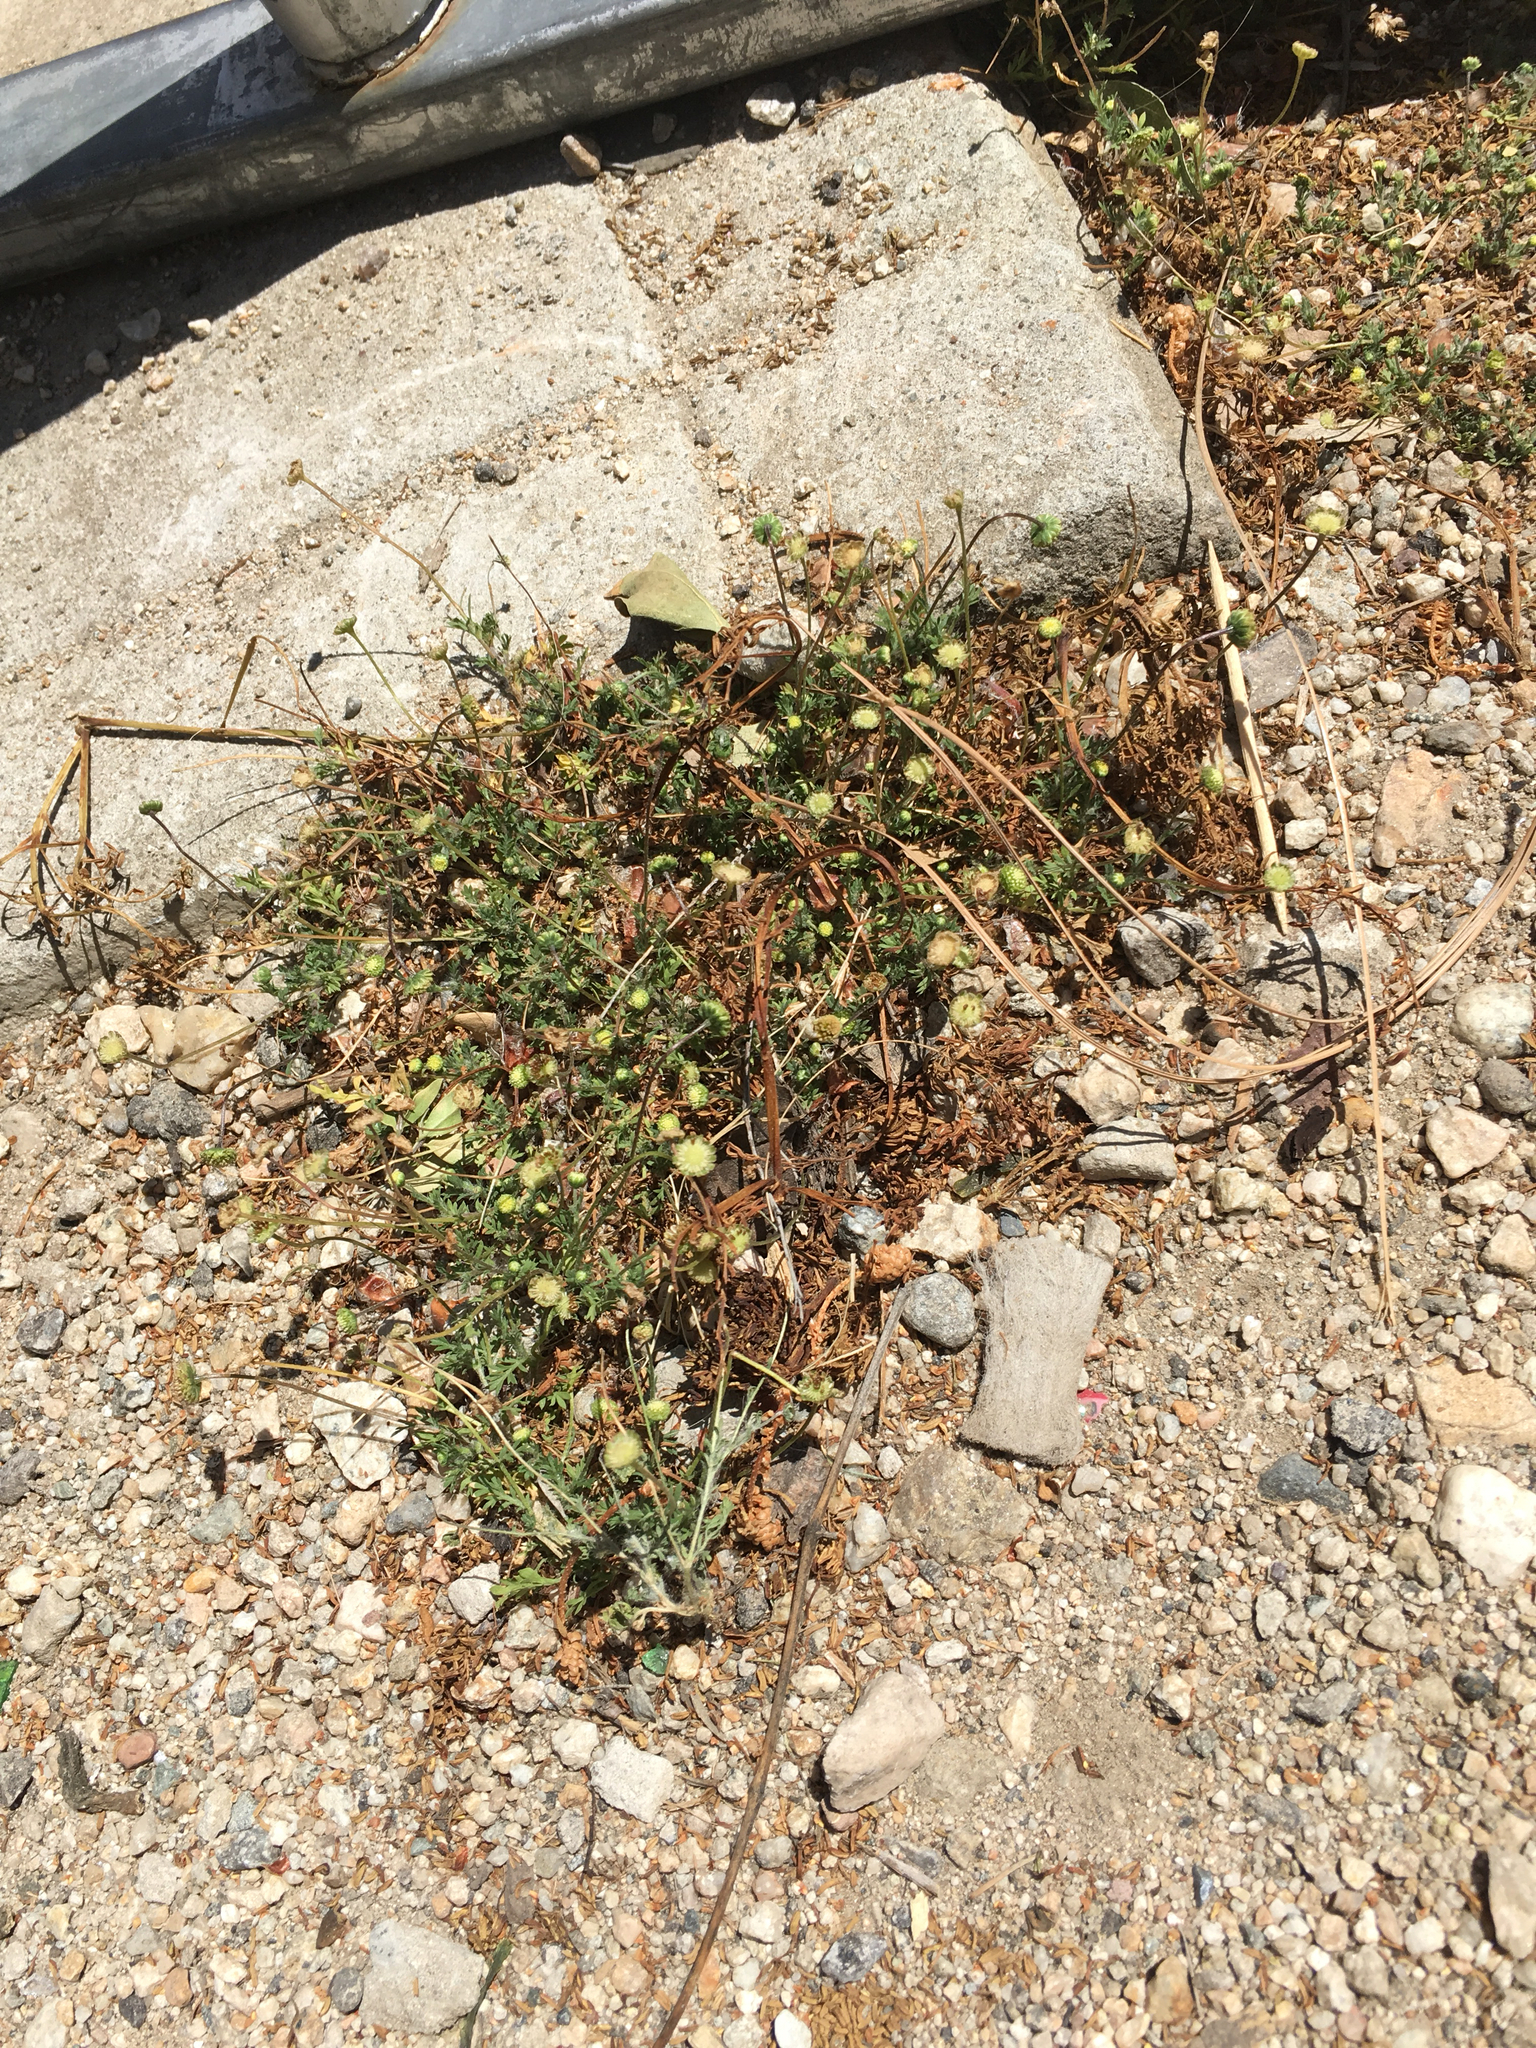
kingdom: Plantae
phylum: Tracheophyta
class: Magnoliopsida
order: Asterales
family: Asteraceae
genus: Cotula
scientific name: Cotula australis
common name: Australian waterbuttons
